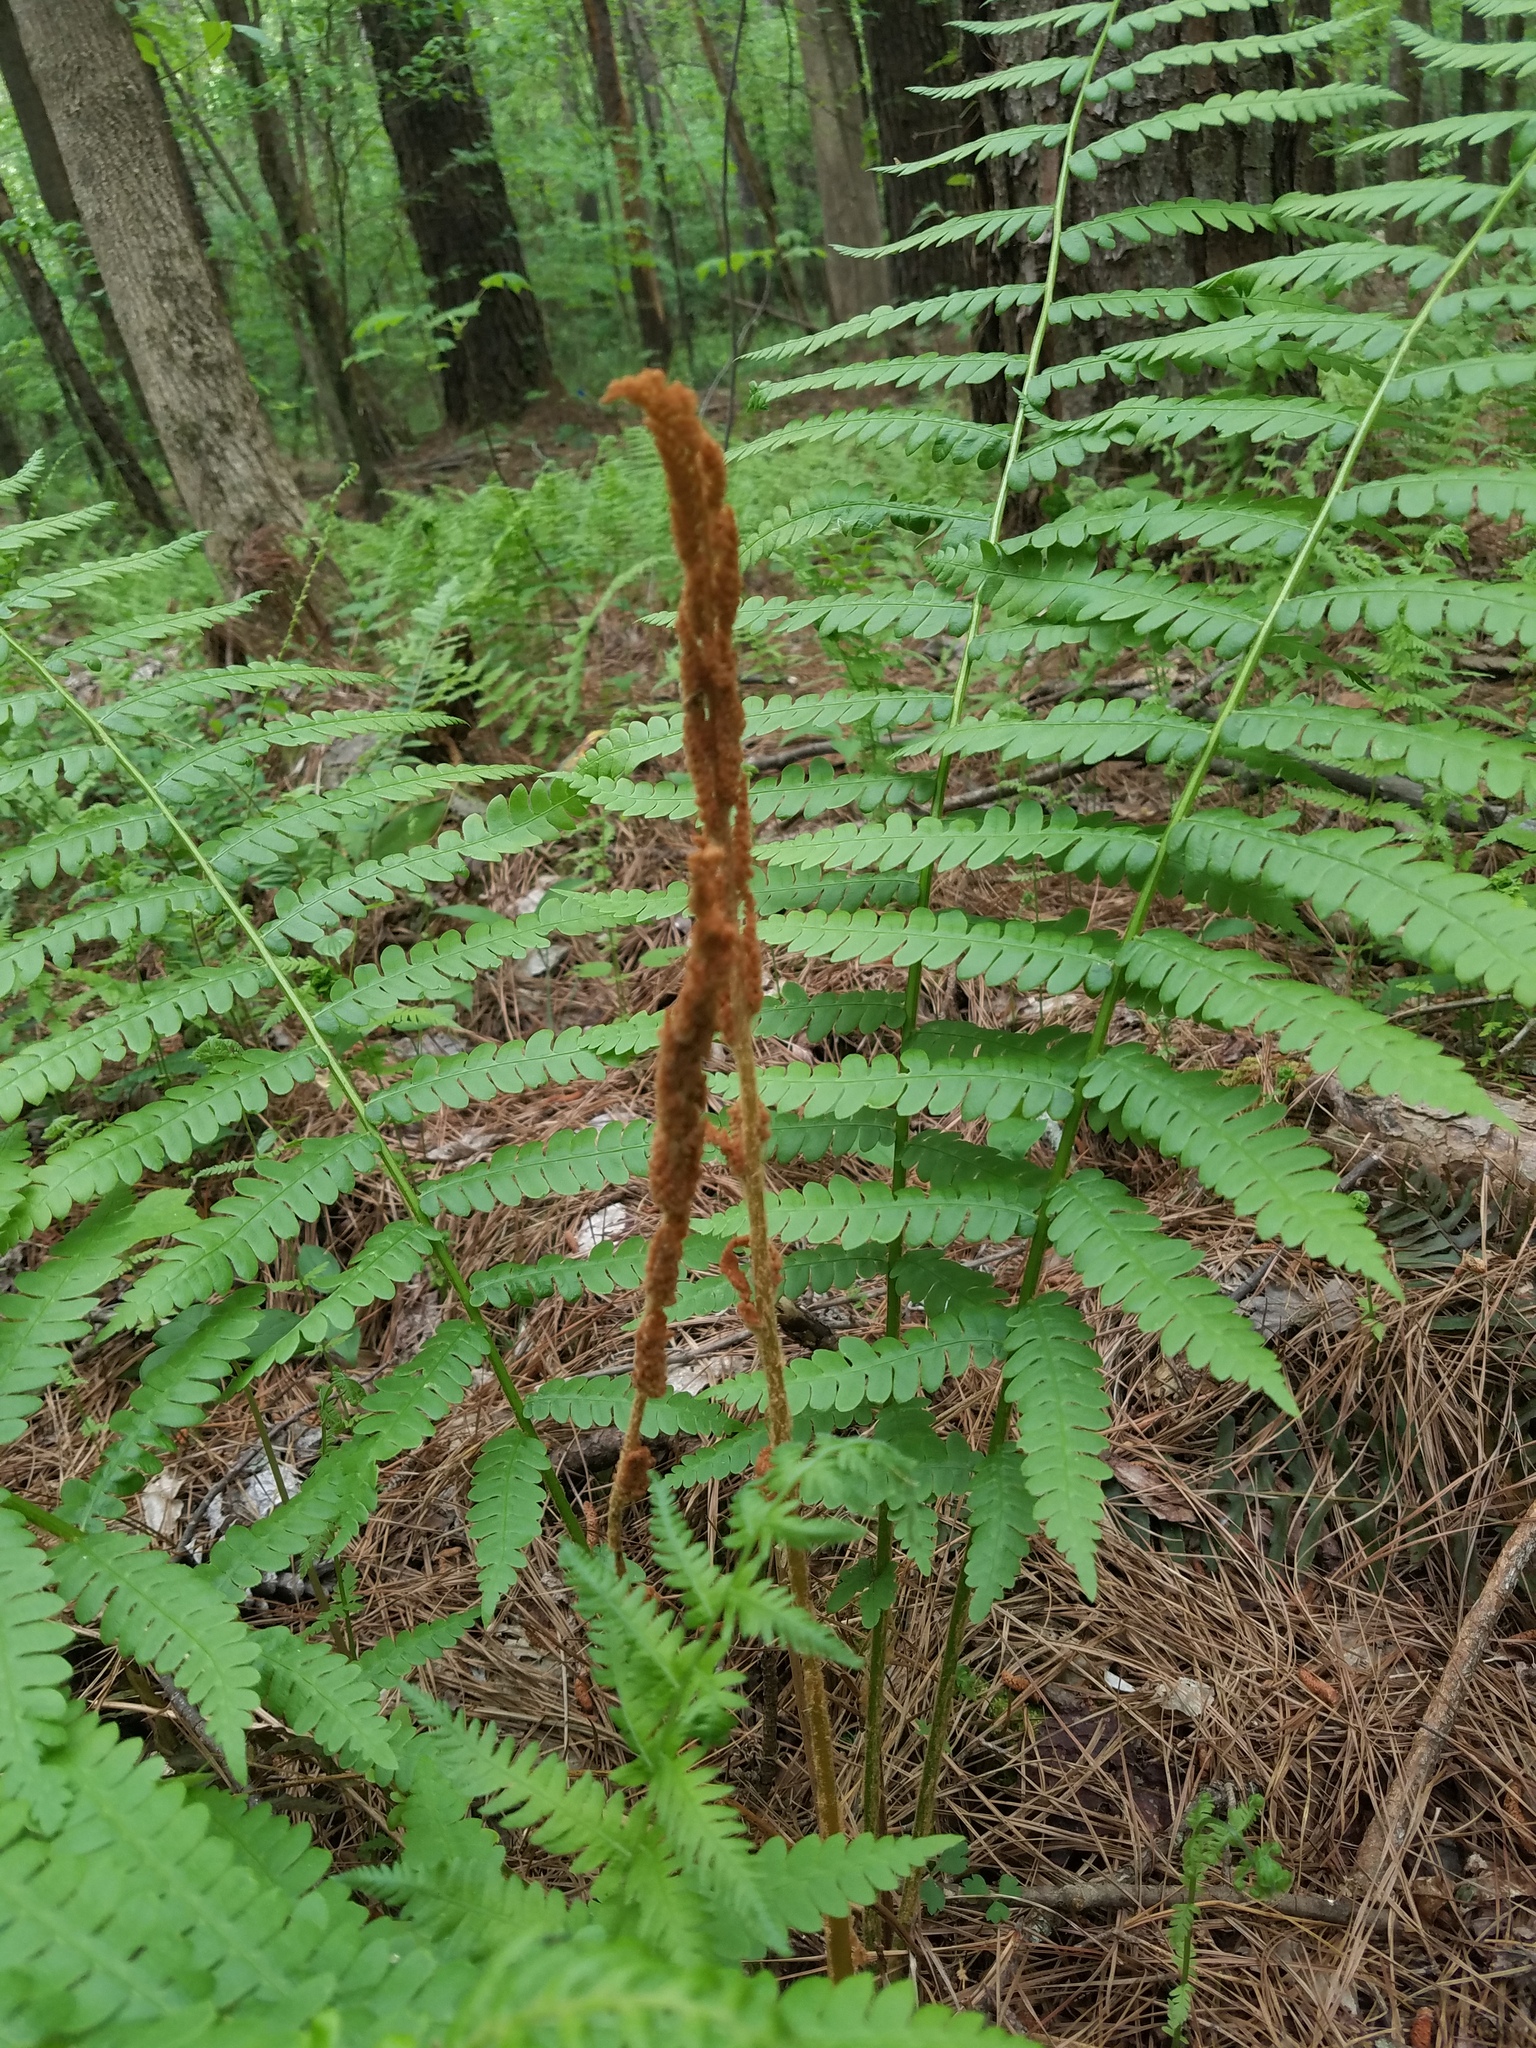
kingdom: Plantae
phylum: Tracheophyta
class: Polypodiopsida
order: Osmundales
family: Osmundaceae
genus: Osmundastrum
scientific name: Osmundastrum cinnamomeum
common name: Cinnamon fern
